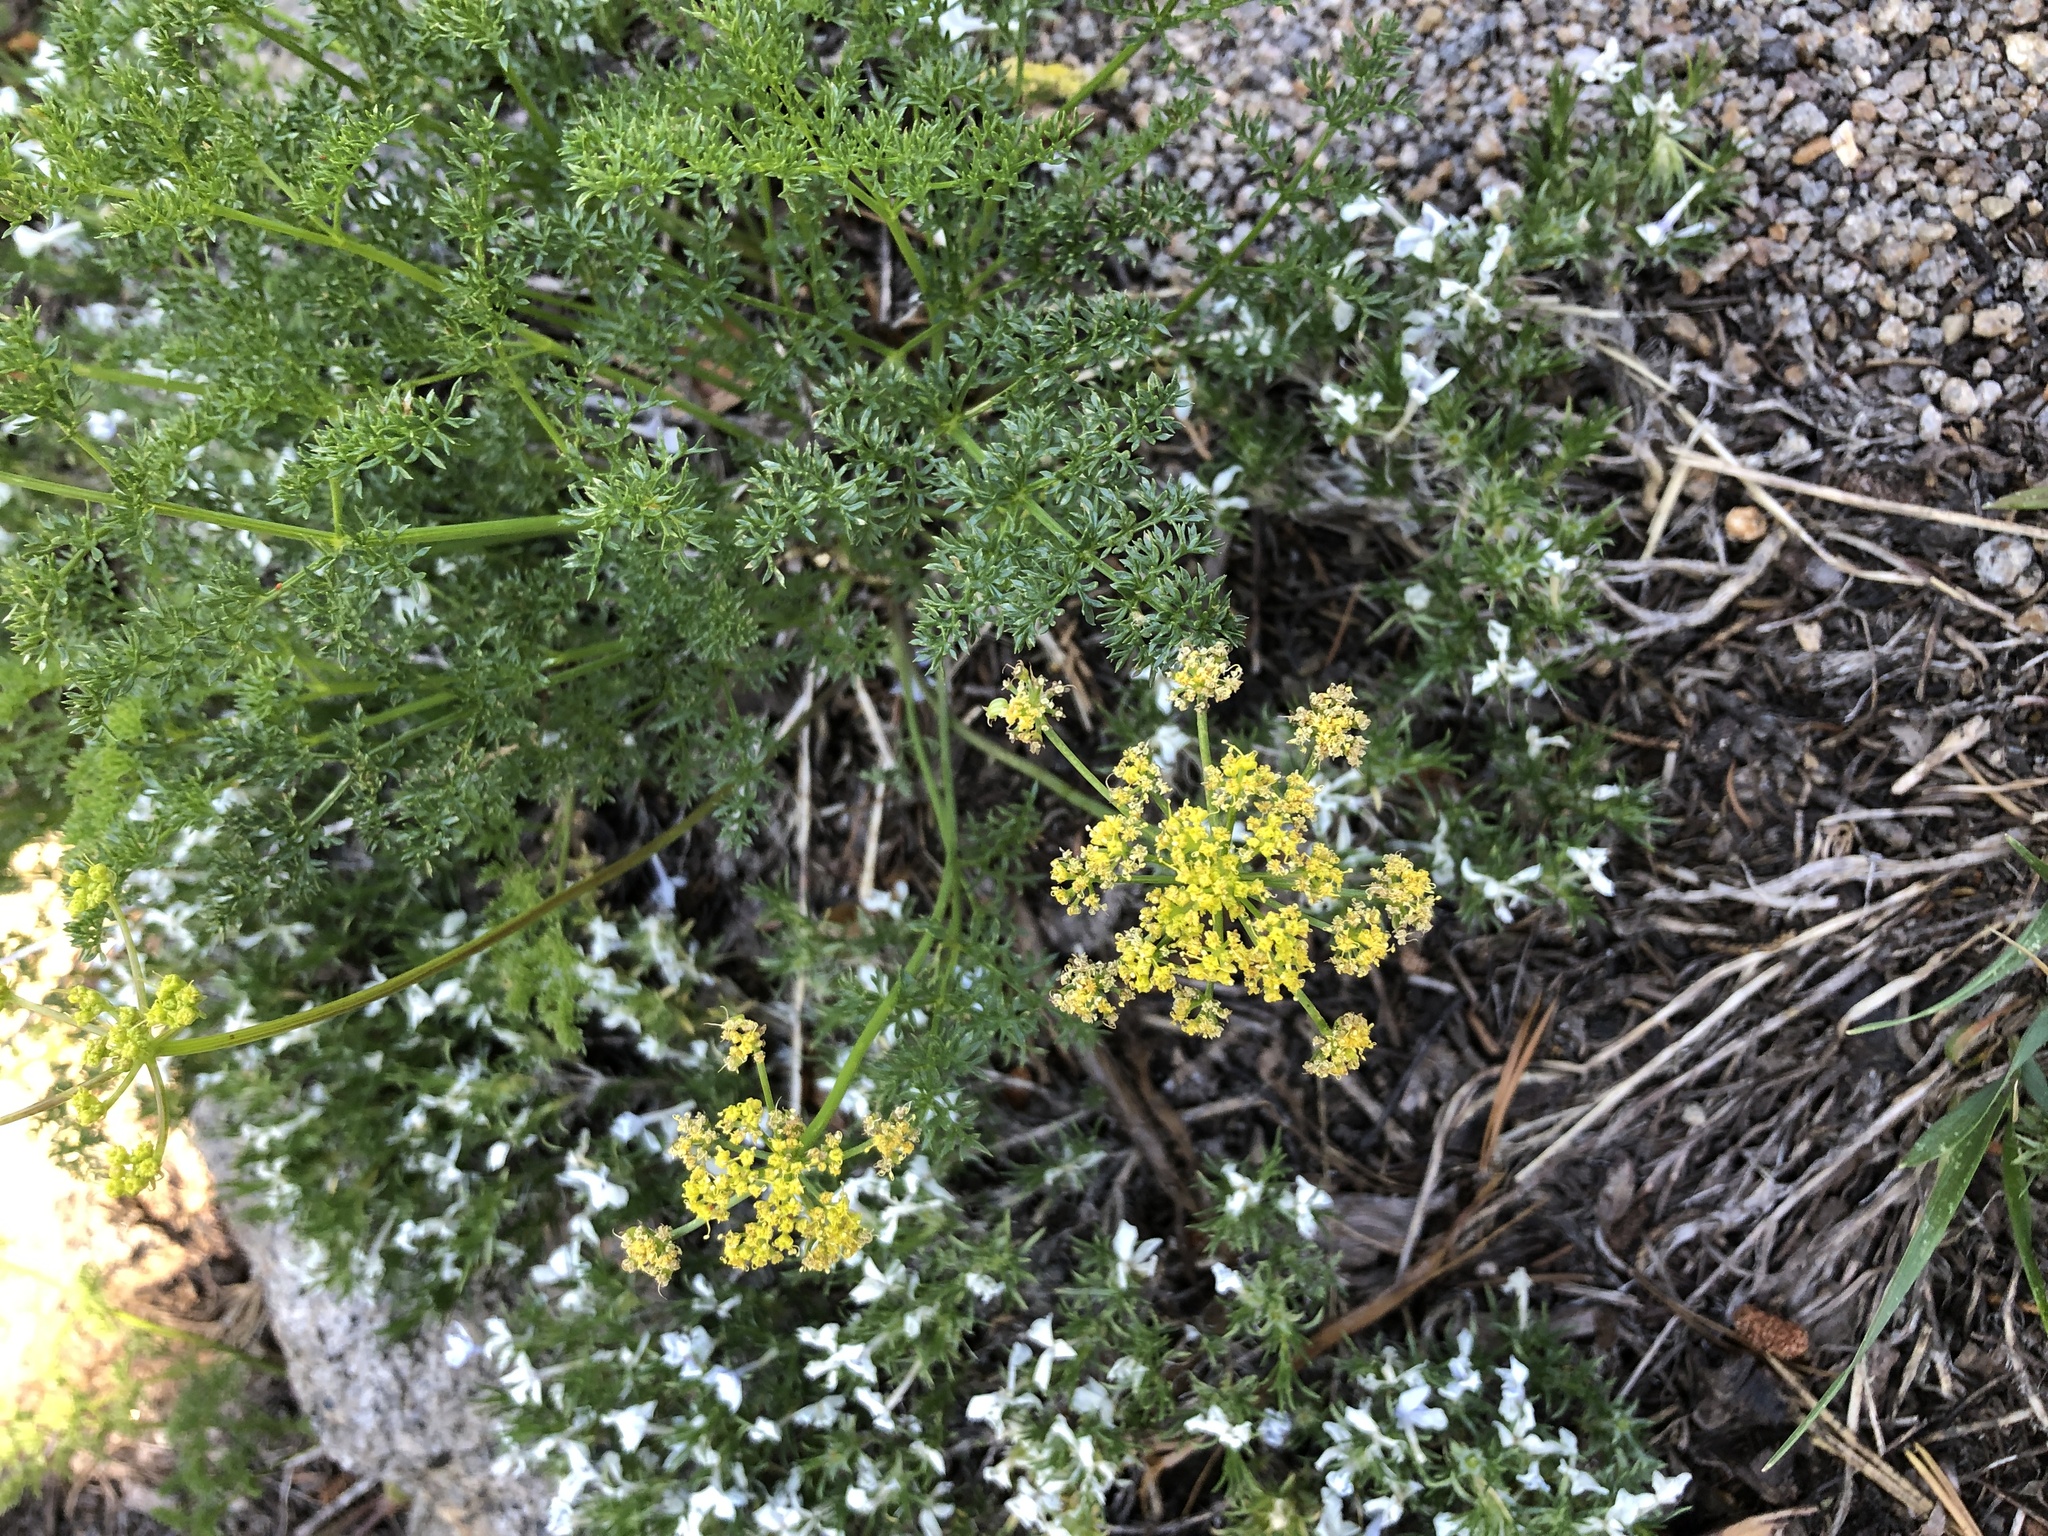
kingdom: Plantae
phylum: Tracheophyta
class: Magnoliopsida
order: Apiales
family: Apiaceae
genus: Pteryxia
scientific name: Pteryxia terebinthina
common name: Turpentine wavewing
